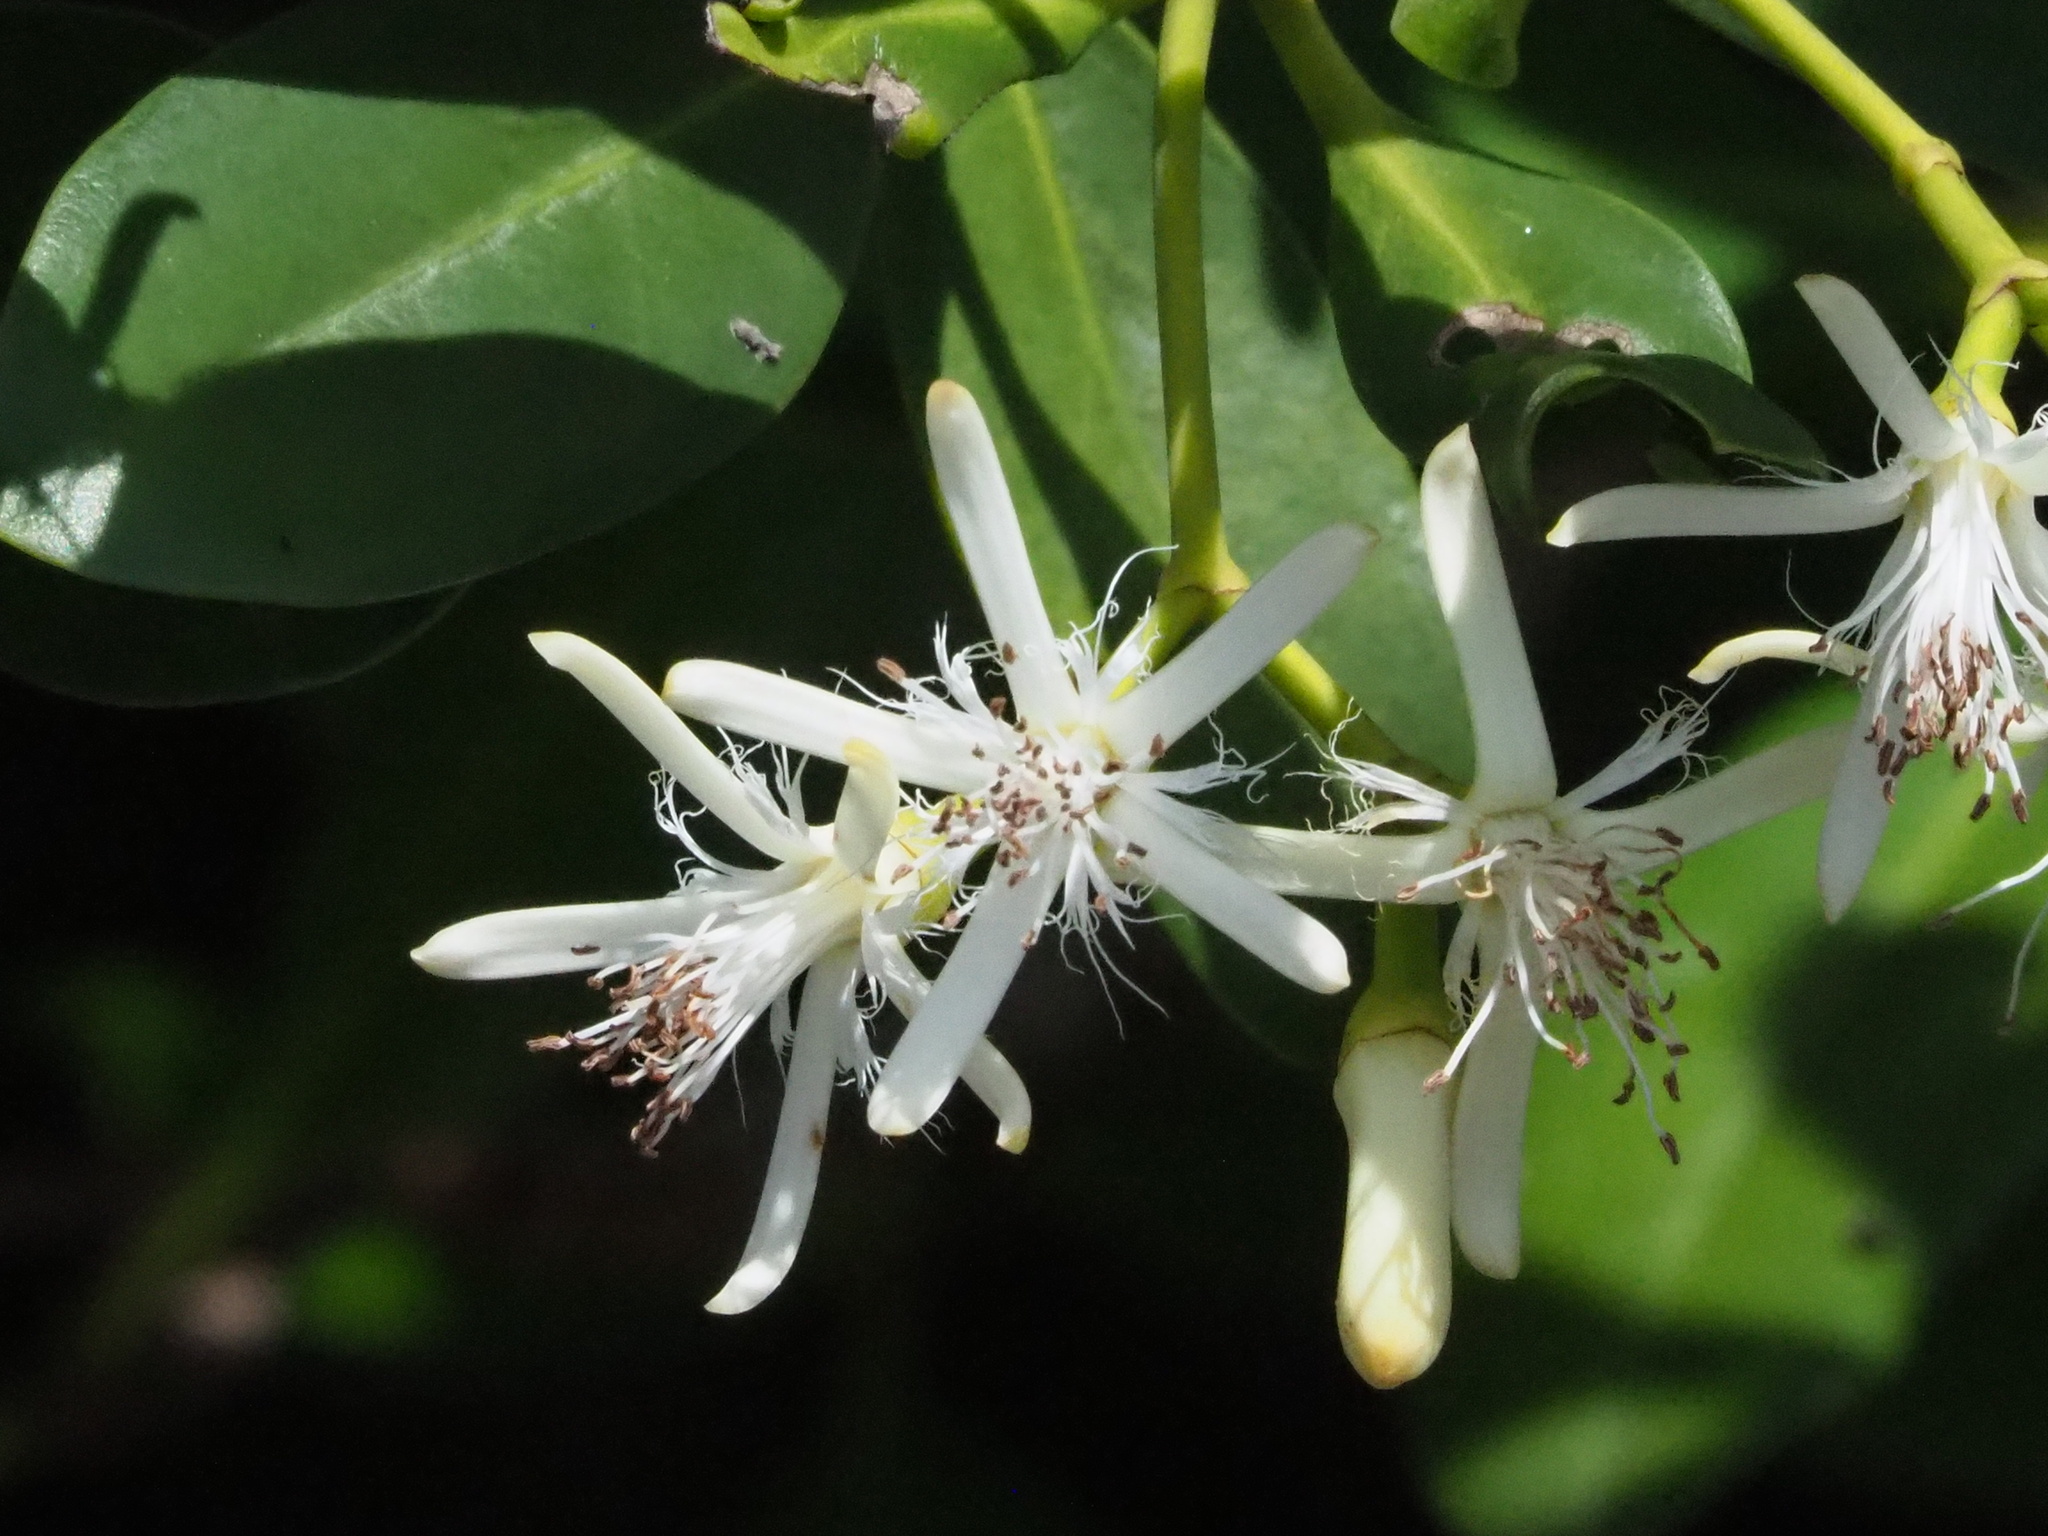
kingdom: Plantae
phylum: Tracheophyta
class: Magnoliopsida
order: Malpighiales
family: Rhizophoraceae
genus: Kandelia
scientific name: Kandelia obovata
